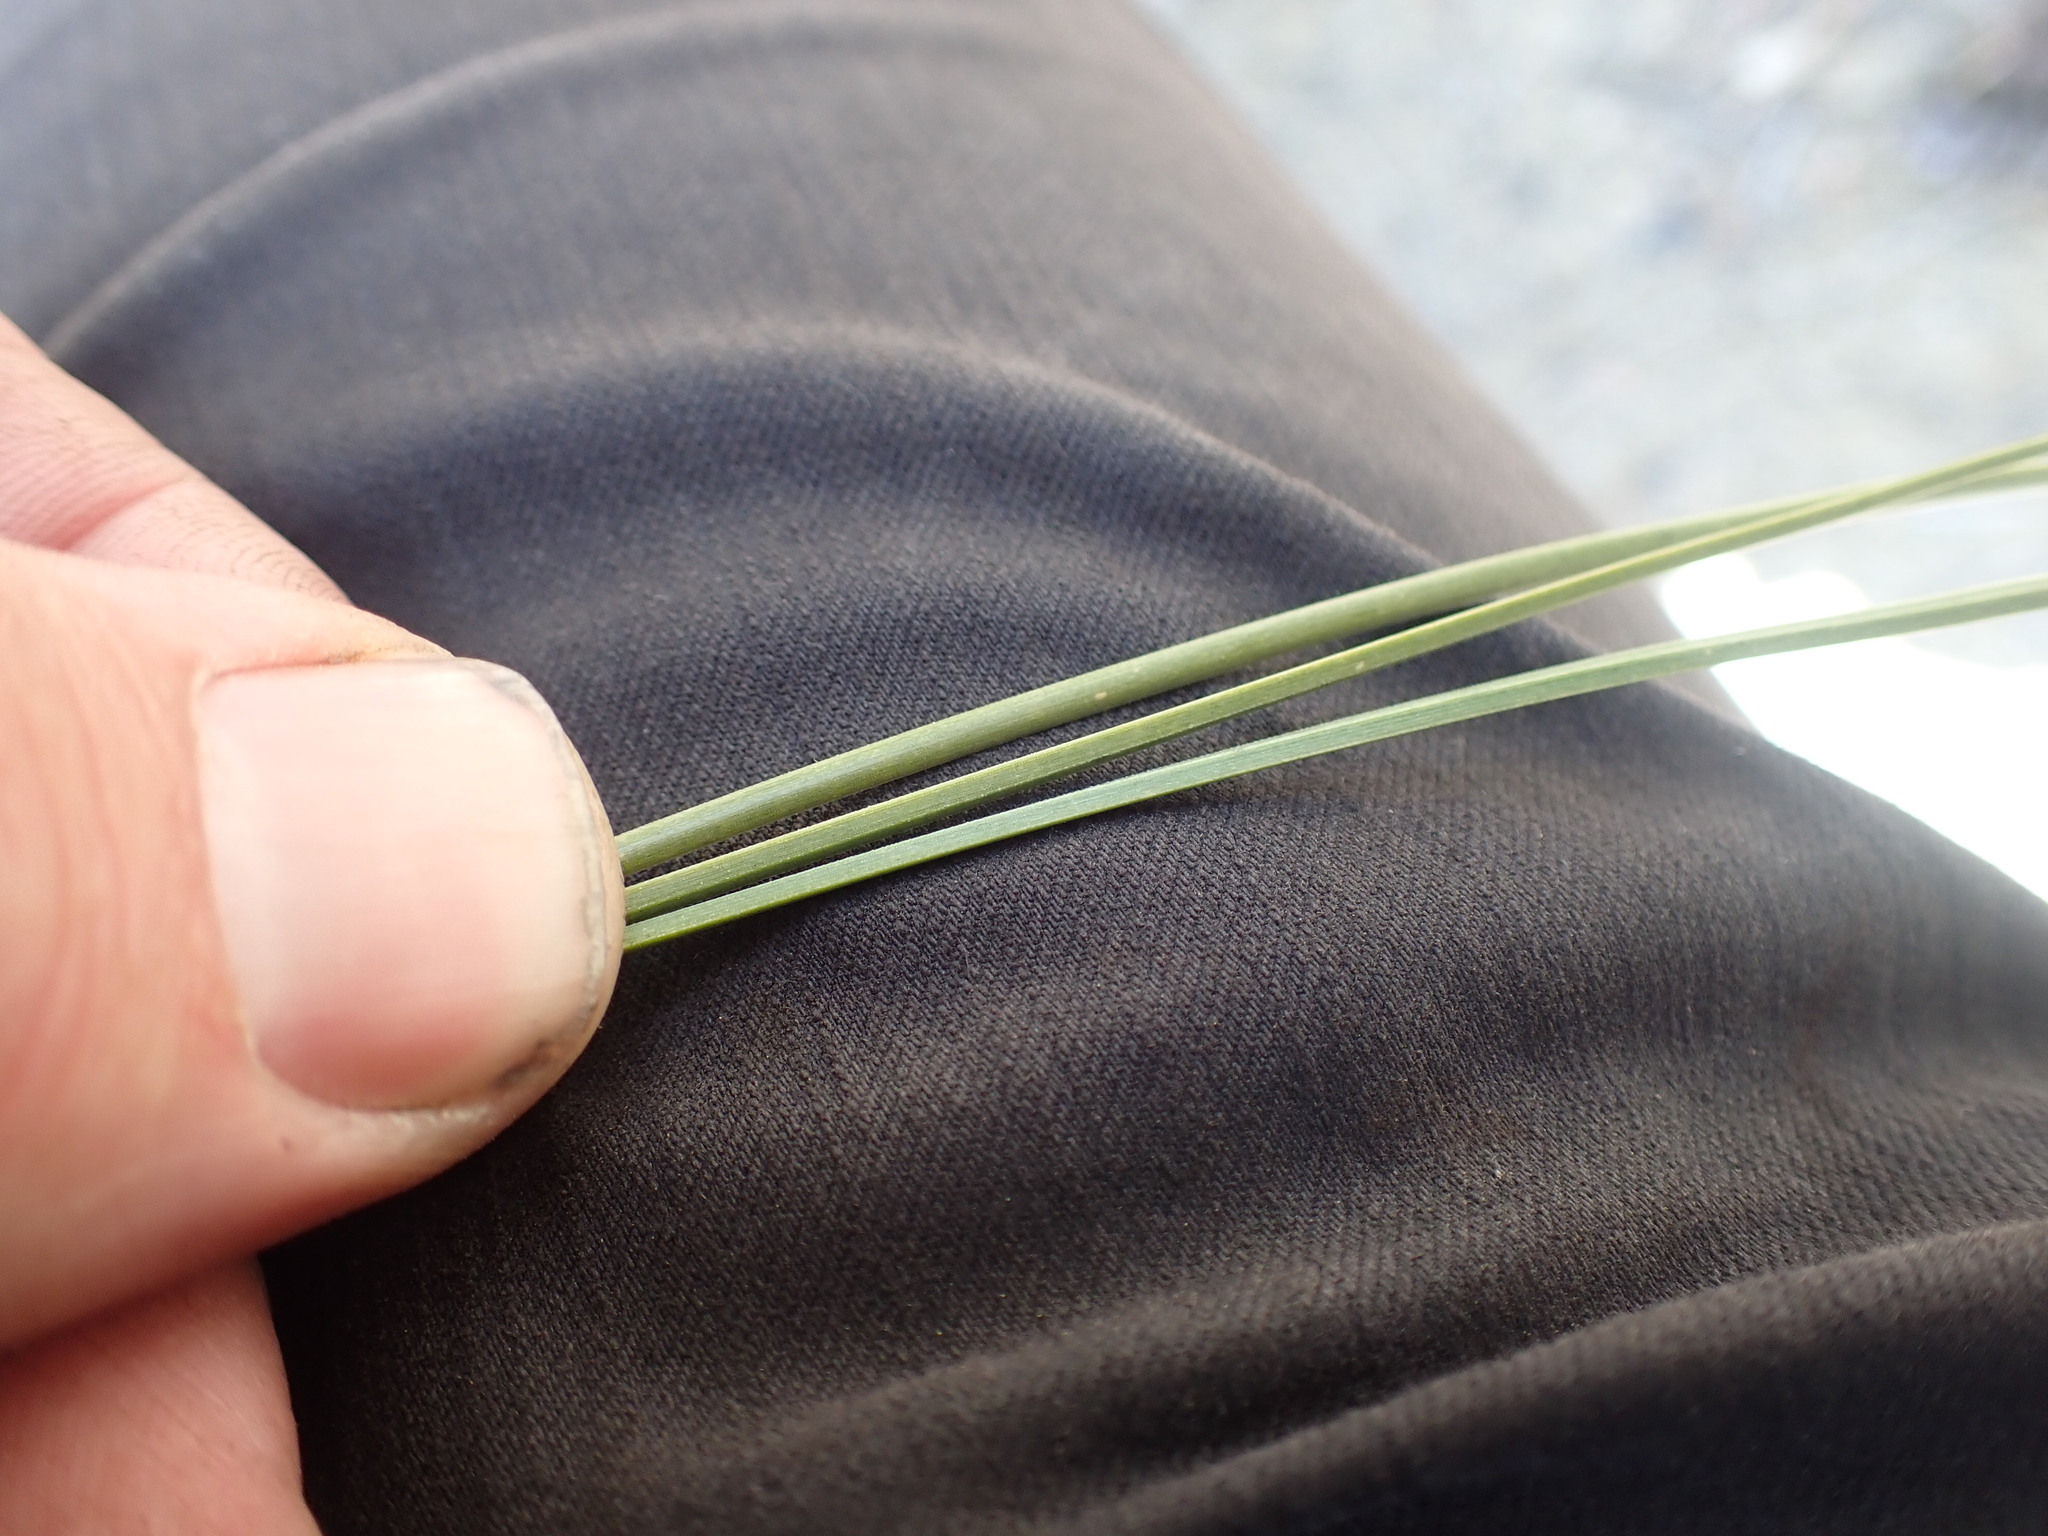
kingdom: Plantae
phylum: Tracheophyta
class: Pinopsida
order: Pinales
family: Pinaceae
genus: Pinus
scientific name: Pinus ponderosa
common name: Western yellow-pine
